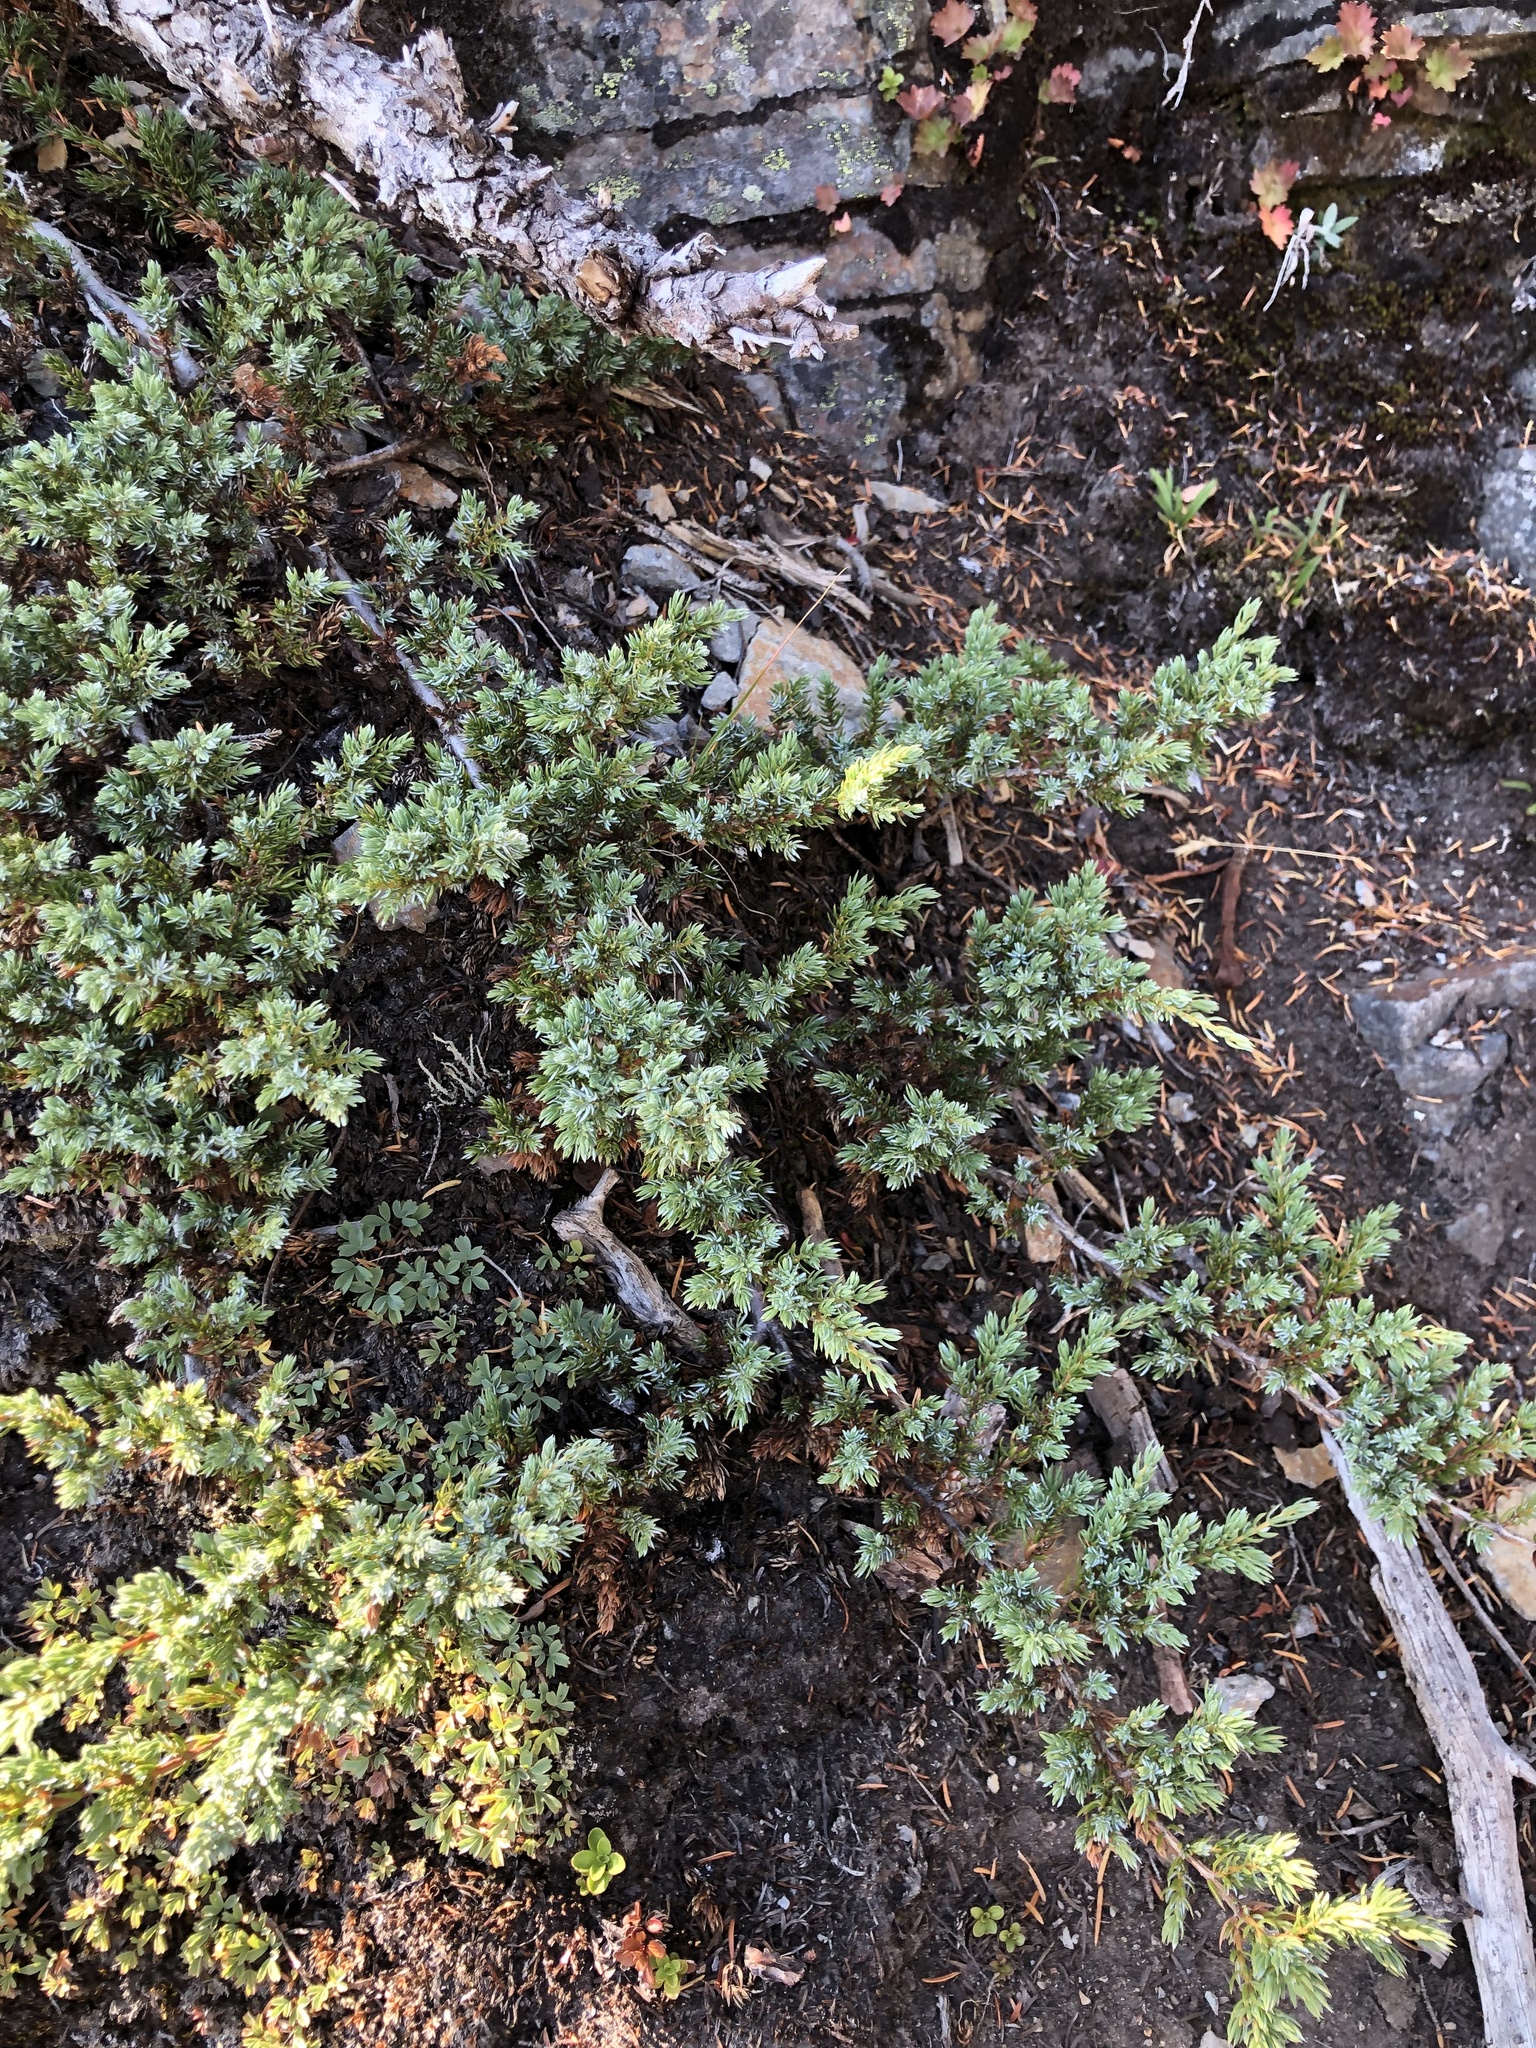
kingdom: Plantae
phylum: Tracheophyta
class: Pinopsida
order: Pinales
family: Cupressaceae
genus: Juniperus
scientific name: Juniperus communis
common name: Common juniper
